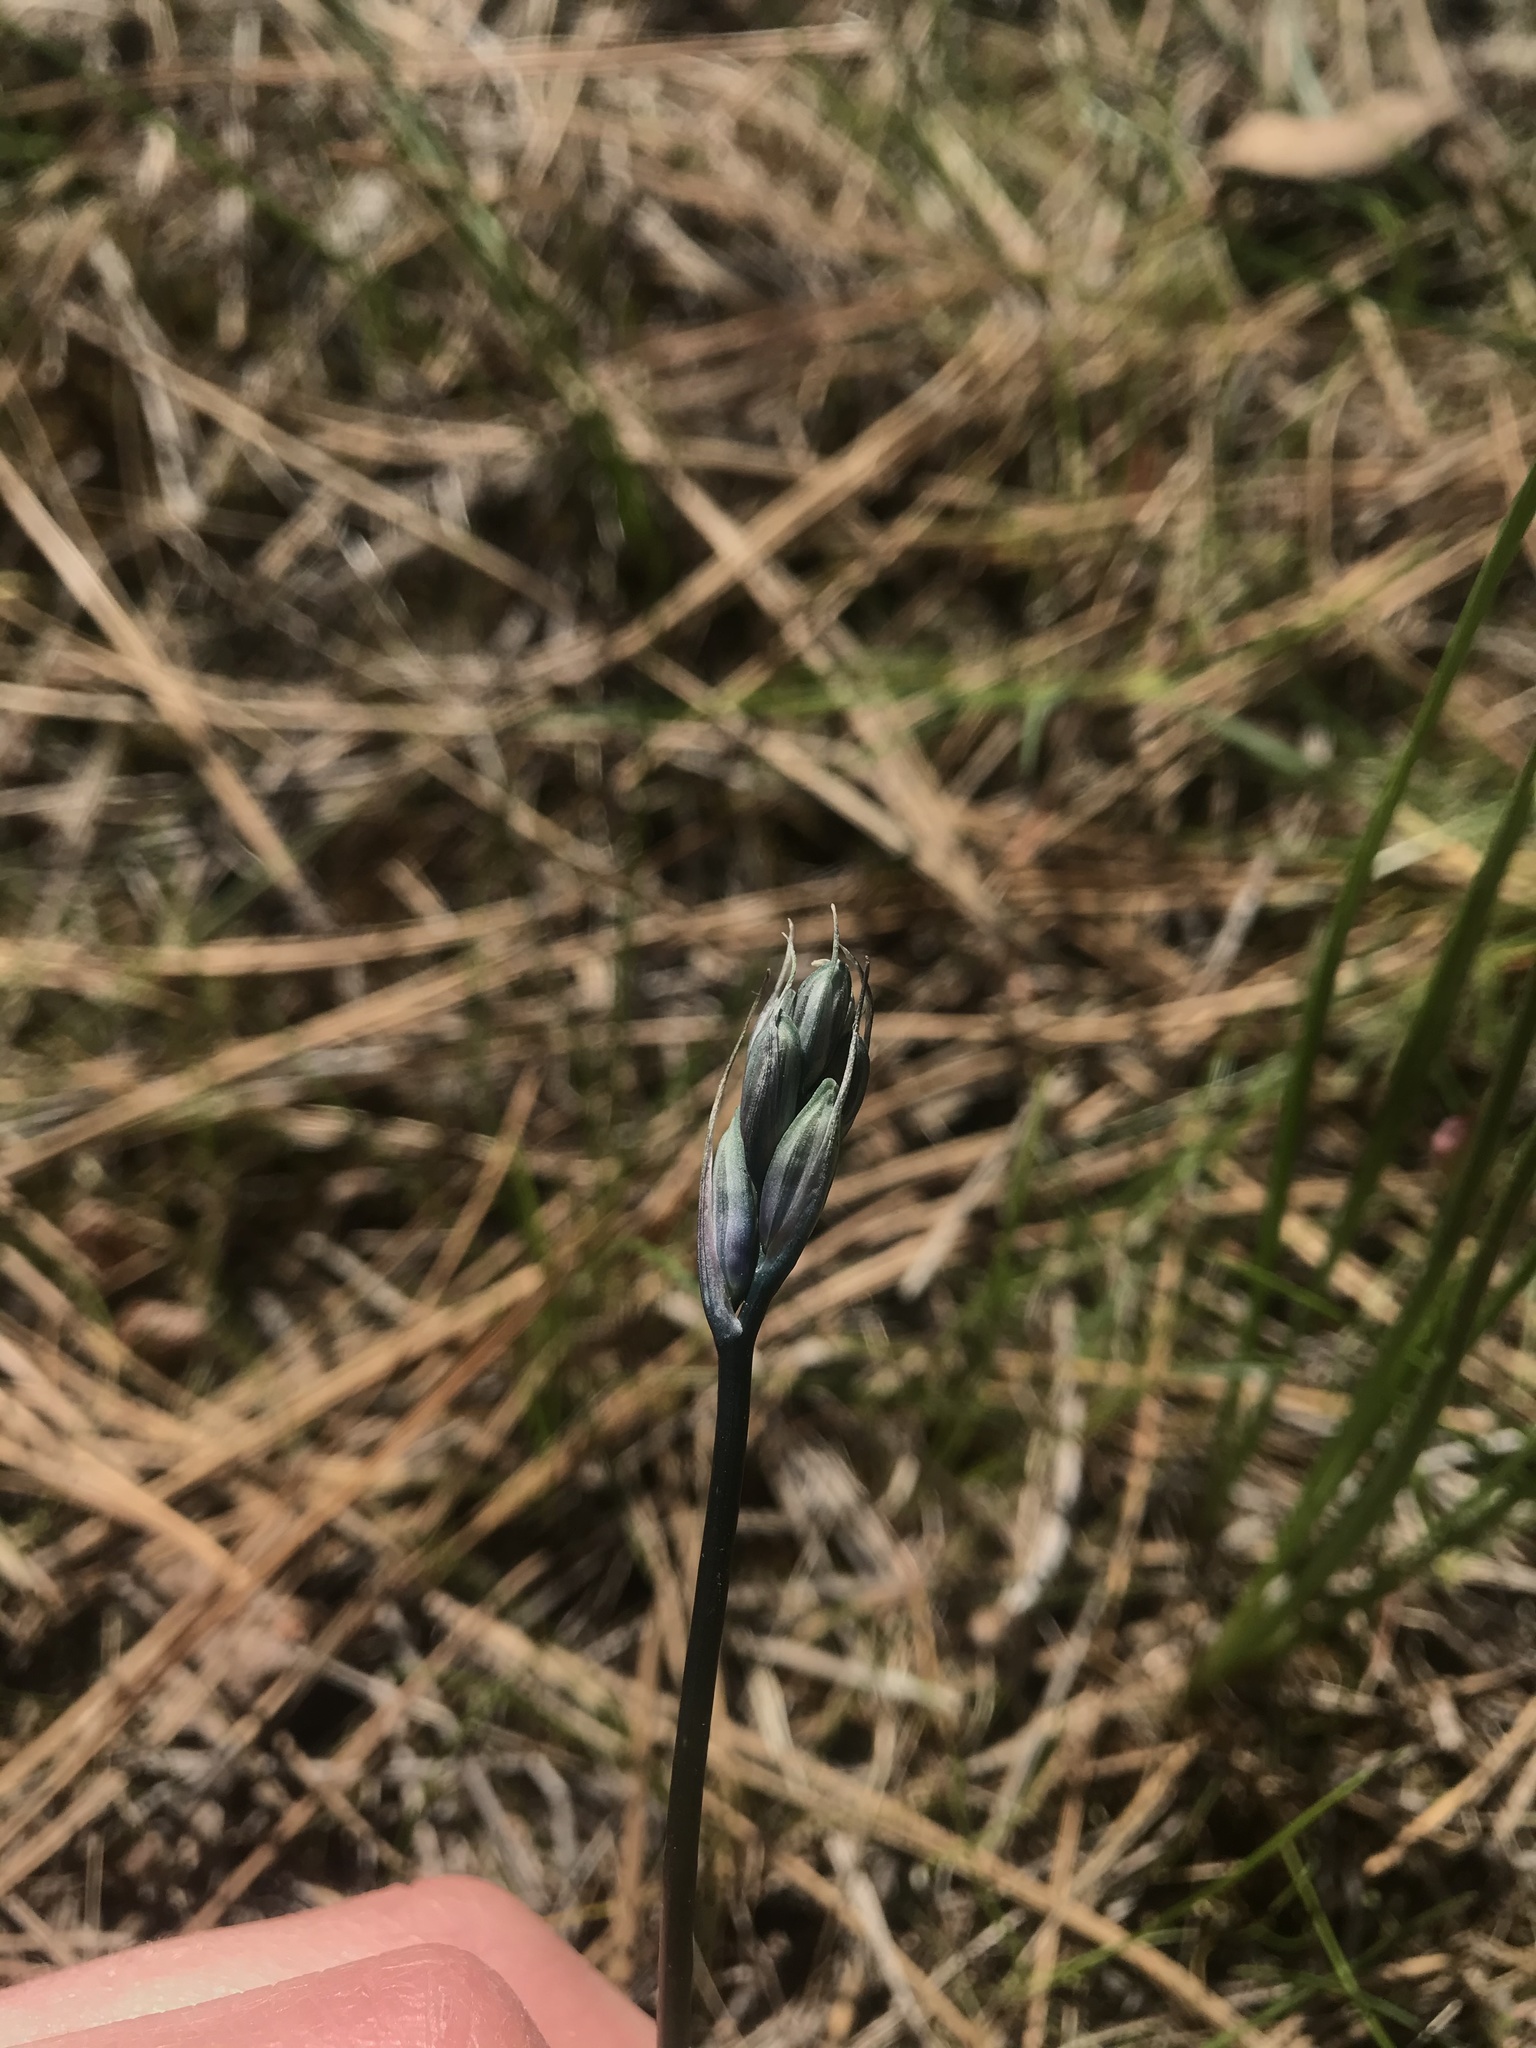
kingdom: Plantae
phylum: Tracheophyta
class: Liliopsida
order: Asparagales
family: Asparagaceae
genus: Camassia
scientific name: Camassia quamash
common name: Common camas
